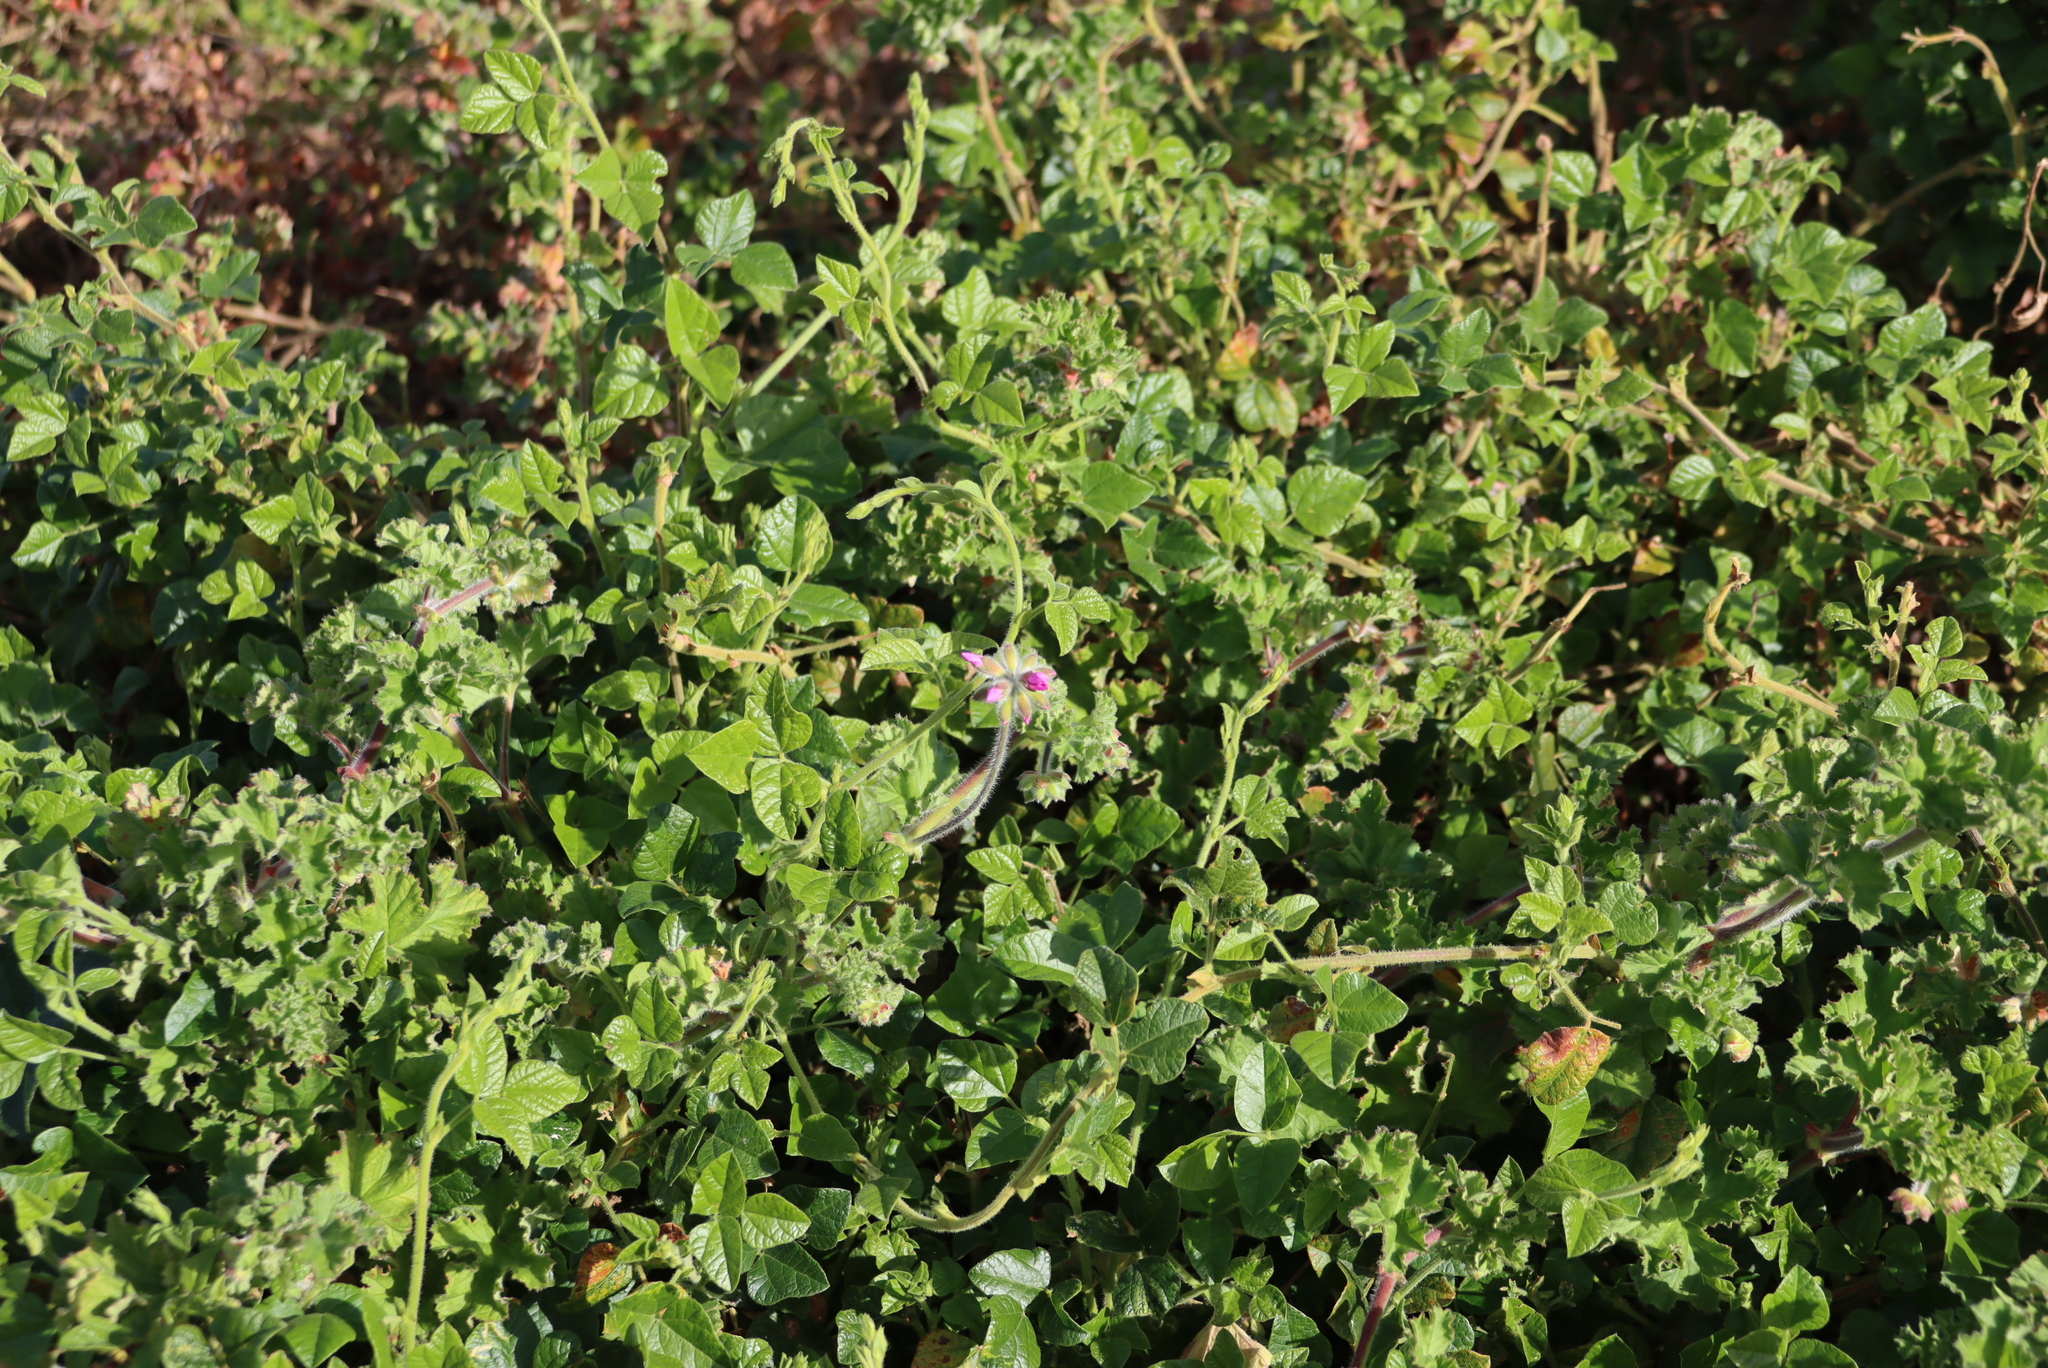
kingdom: Plantae
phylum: Tracheophyta
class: Magnoliopsida
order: Geraniales
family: Geraniaceae
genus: Pelargonium
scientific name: Pelargonium capitatum
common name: Rose scented geranium
